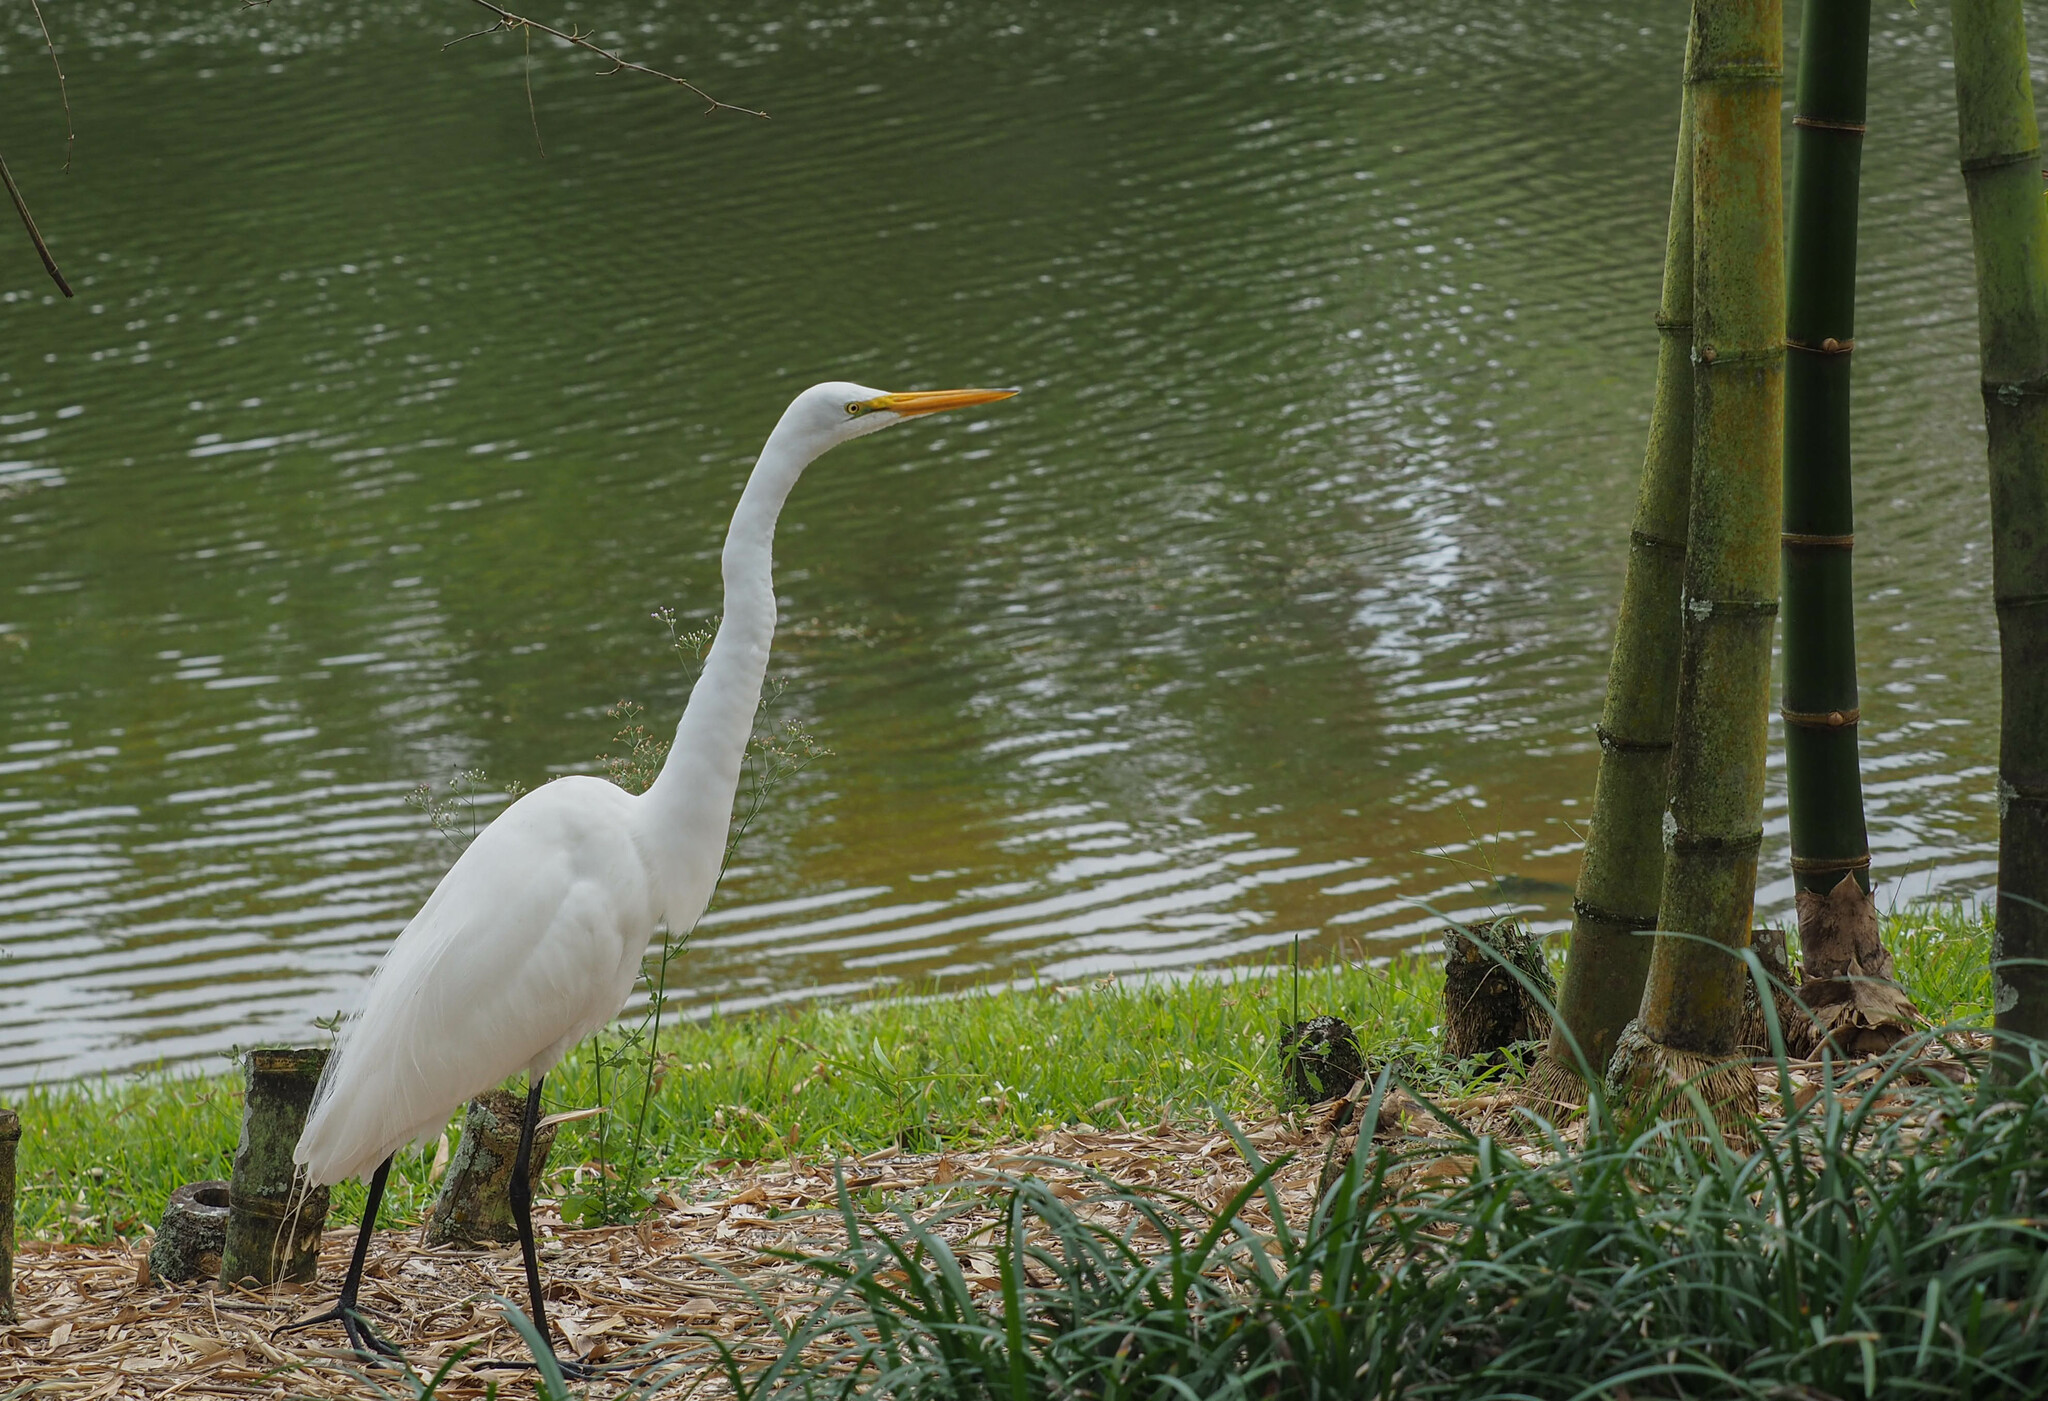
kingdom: Animalia
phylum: Chordata
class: Aves
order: Pelecaniformes
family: Ardeidae
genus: Ardea
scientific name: Ardea alba
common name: Great egret
